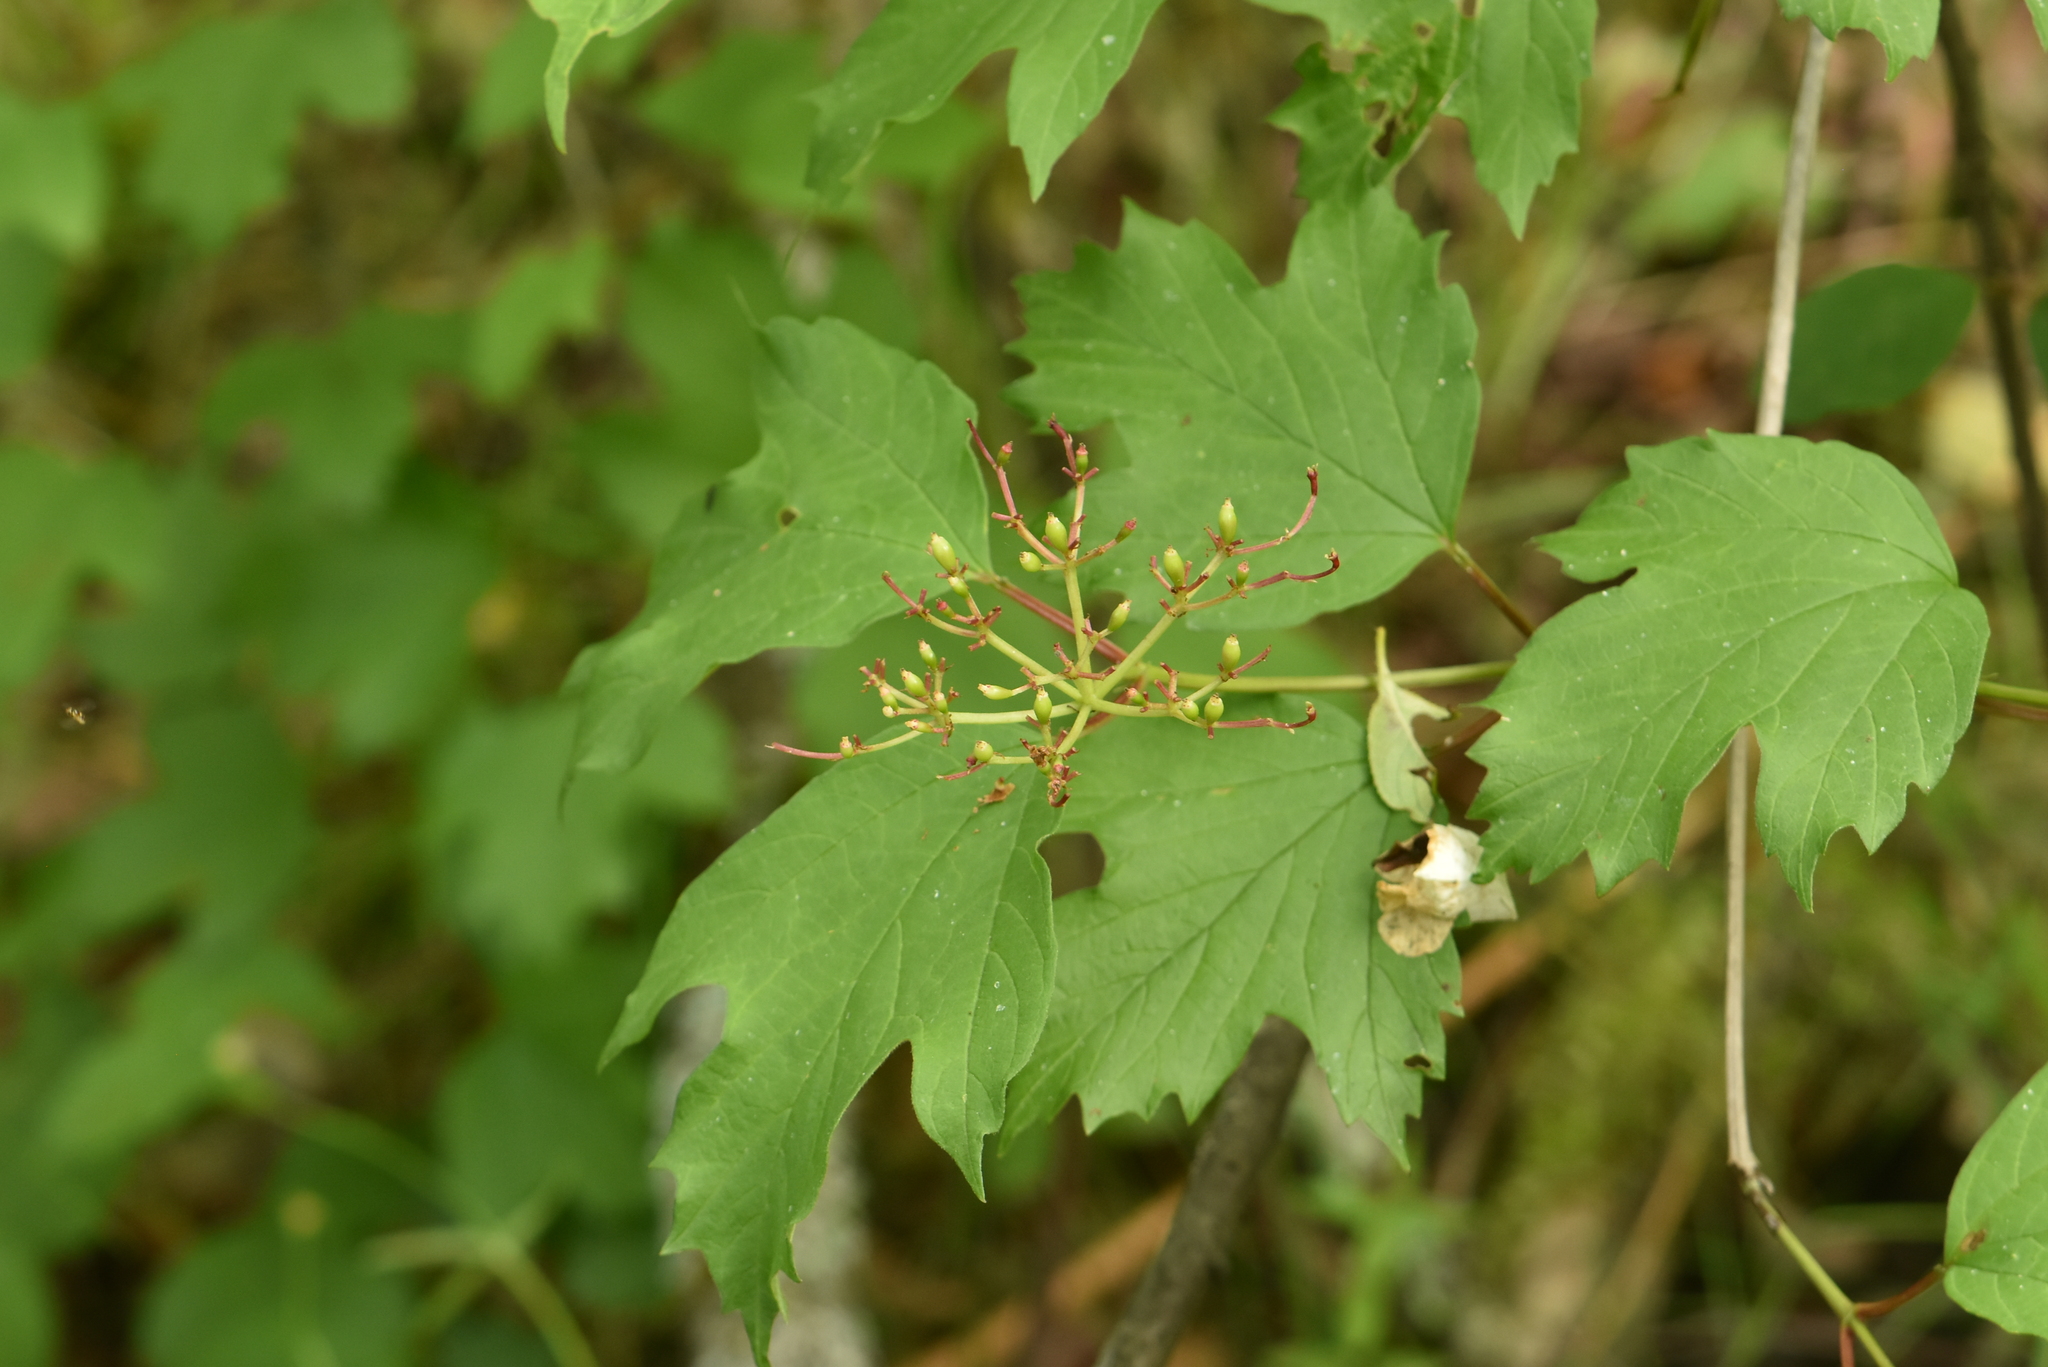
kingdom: Plantae
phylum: Tracheophyta
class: Magnoliopsida
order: Dipsacales
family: Viburnaceae
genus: Viburnum
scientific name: Viburnum opulus
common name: Guelder-rose
